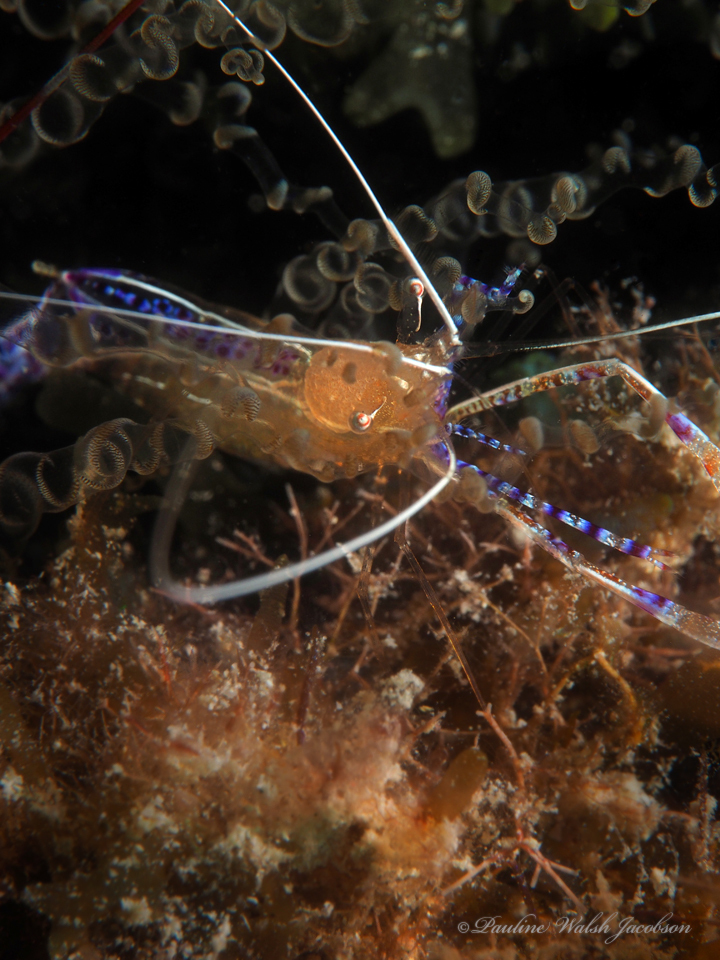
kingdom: Animalia
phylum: Arthropoda
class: Malacostraca
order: Decapoda
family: Palaemonidae
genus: Ancylomenes
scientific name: Ancylomenes pedersoni
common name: Pederson's cleaning shrimp
